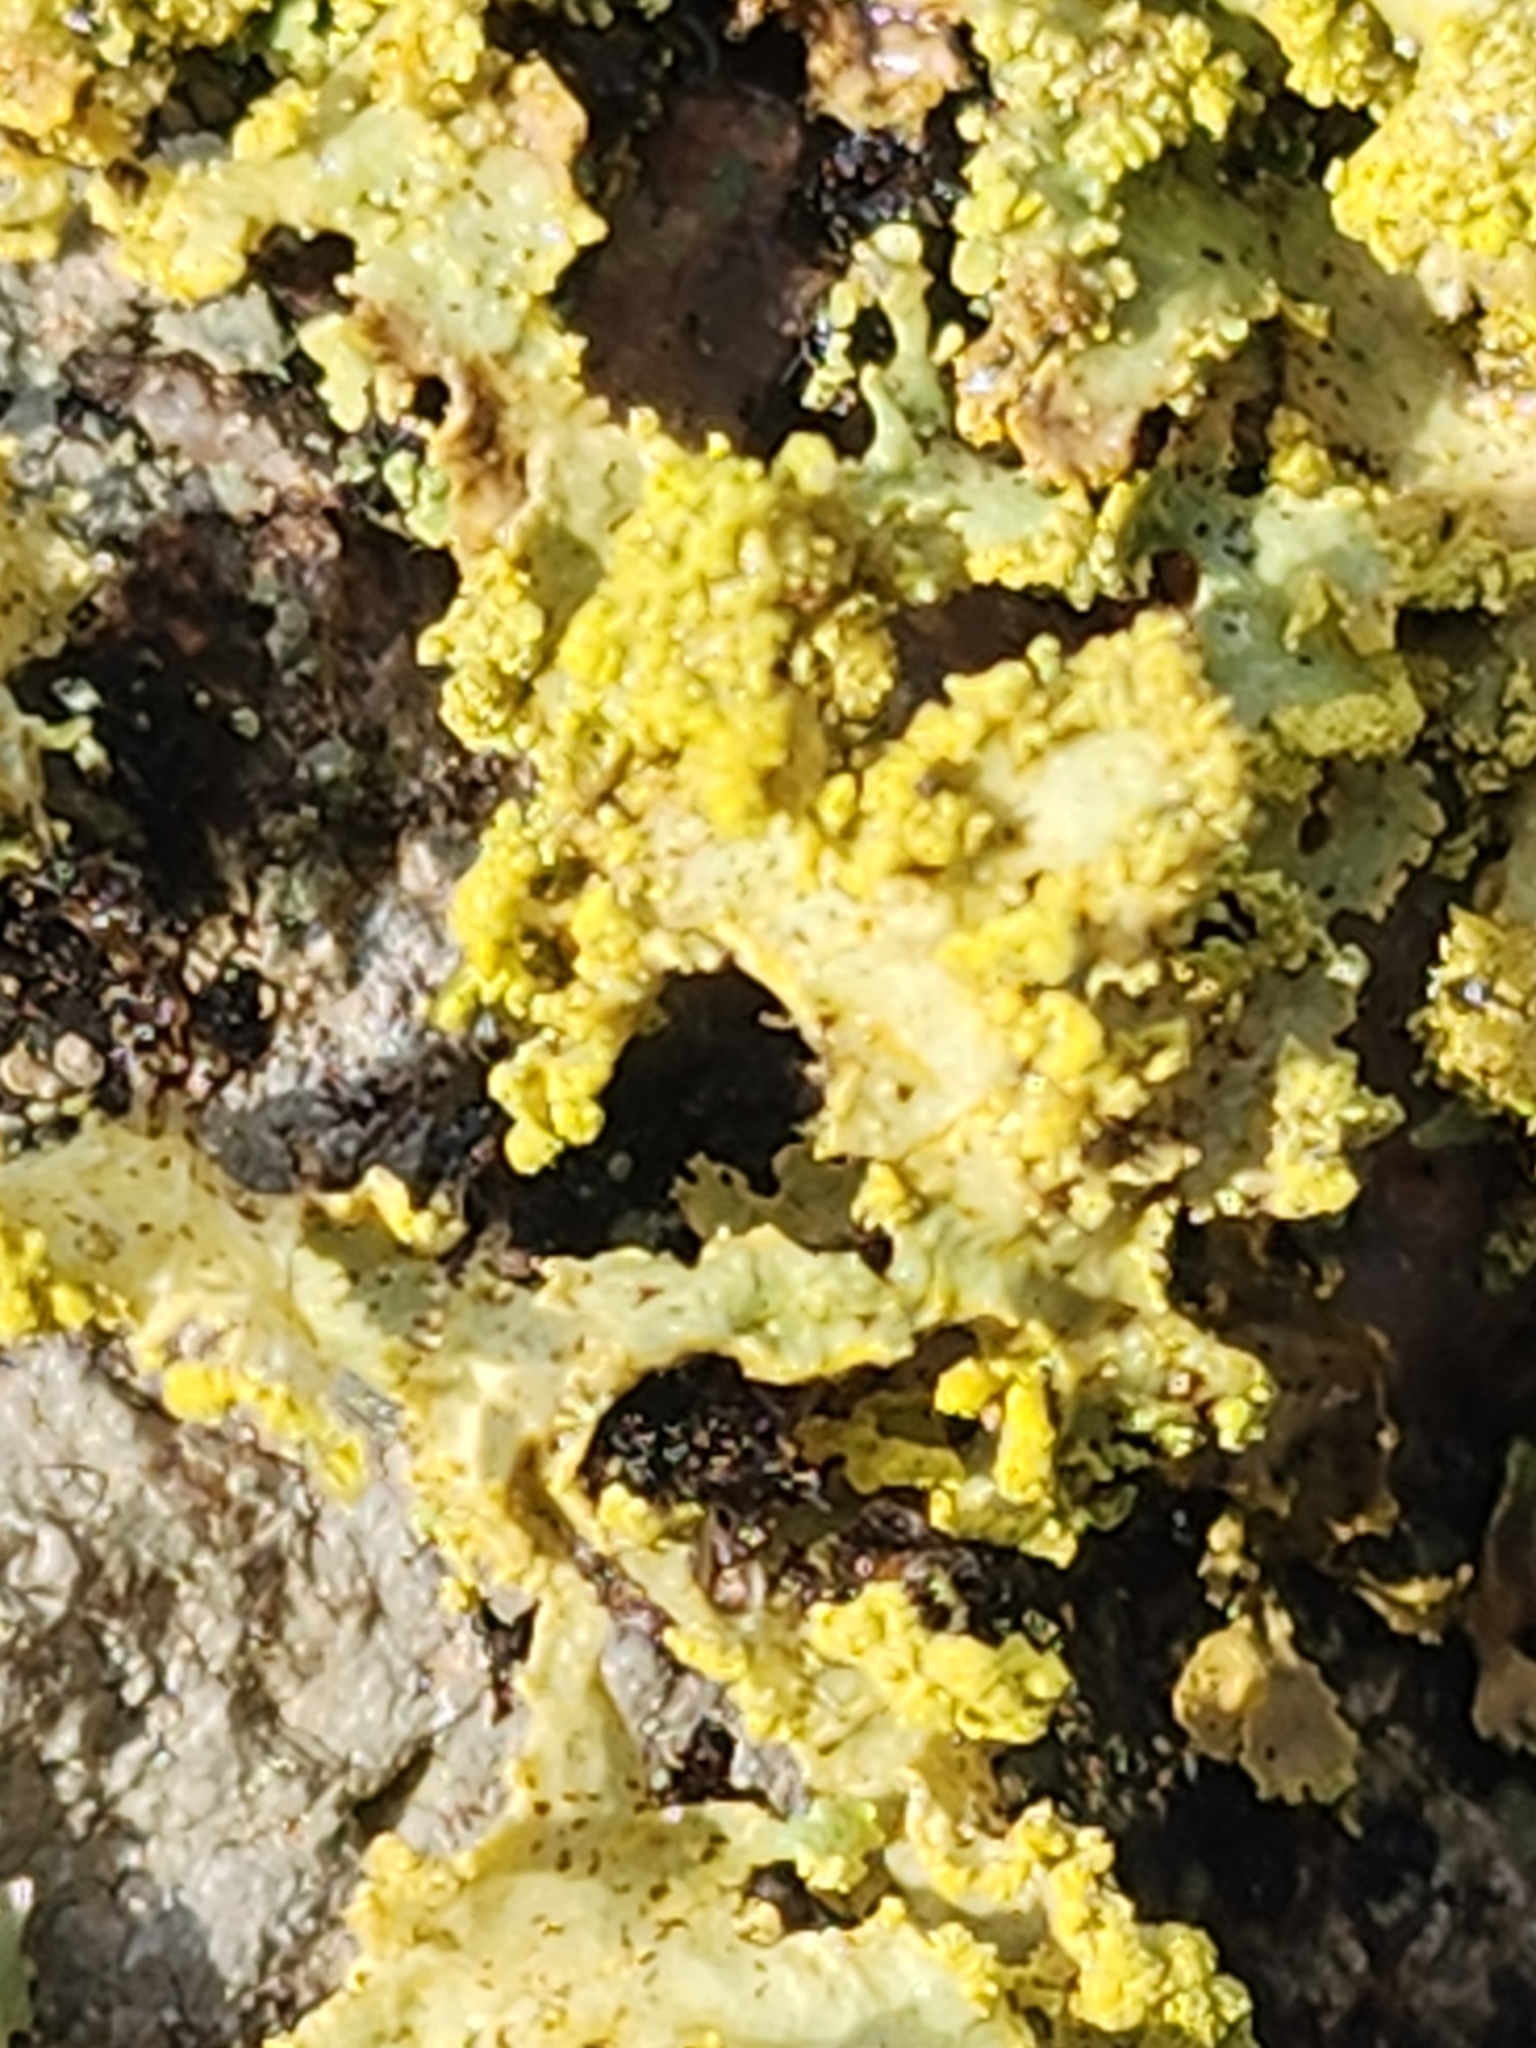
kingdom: Fungi
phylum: Ascomycota
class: Lecanoromycetes
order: Lecanorales
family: Parmeliaceae
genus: Vulpicida
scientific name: Vulpicida pinastri
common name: Powdered sunshine lichen
